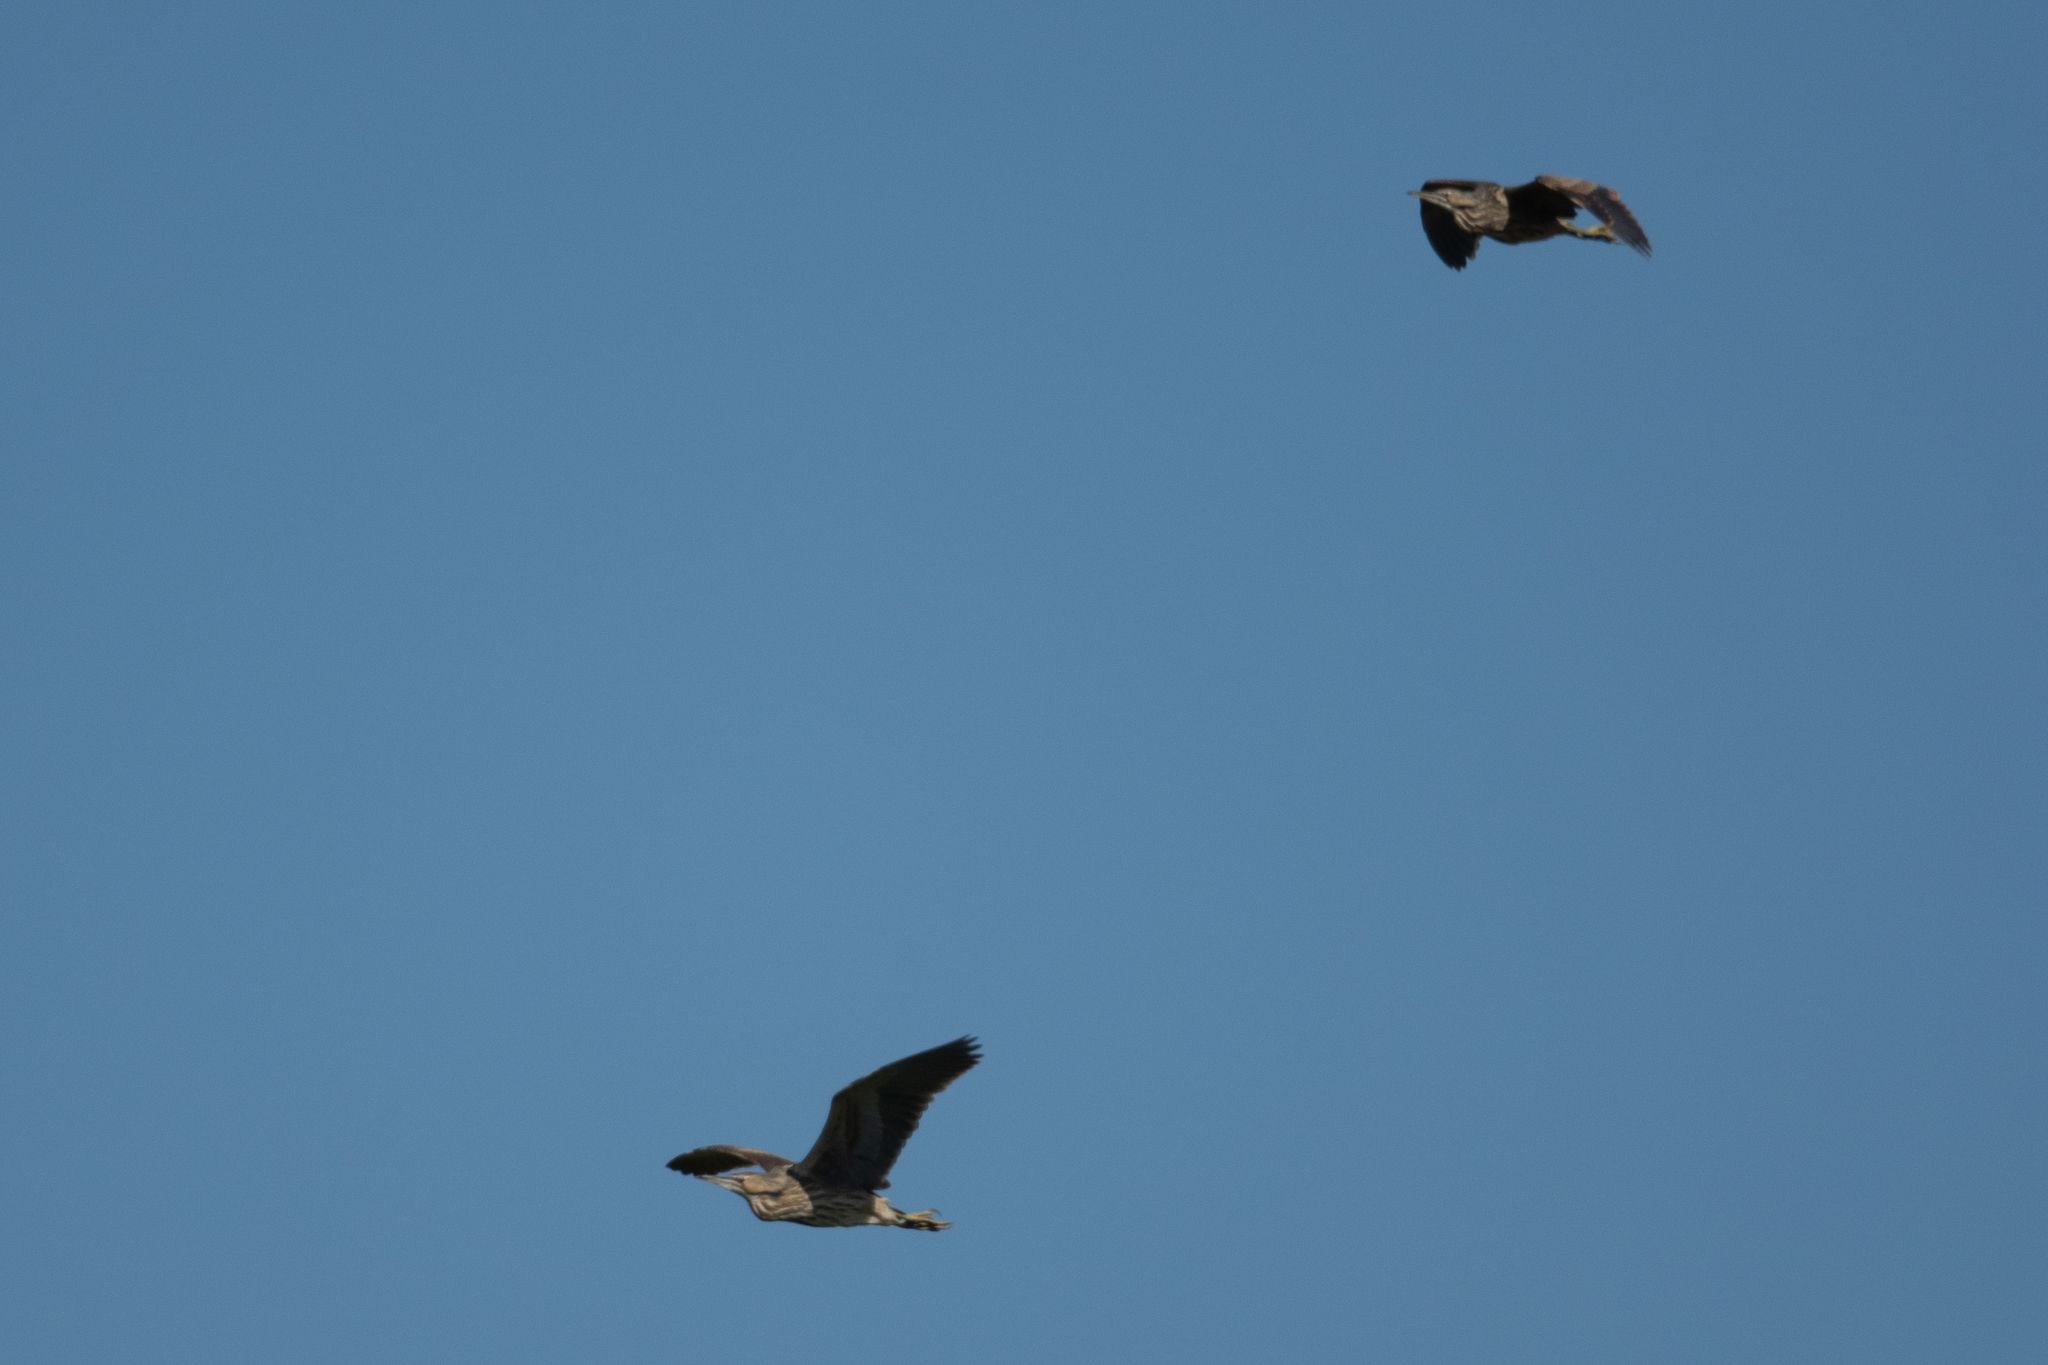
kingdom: Animalia
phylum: Chordata
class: Aves
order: Pelecaniformes
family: Ardeidae
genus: Botaurus
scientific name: Botaurus lentiginosus
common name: American bittern
